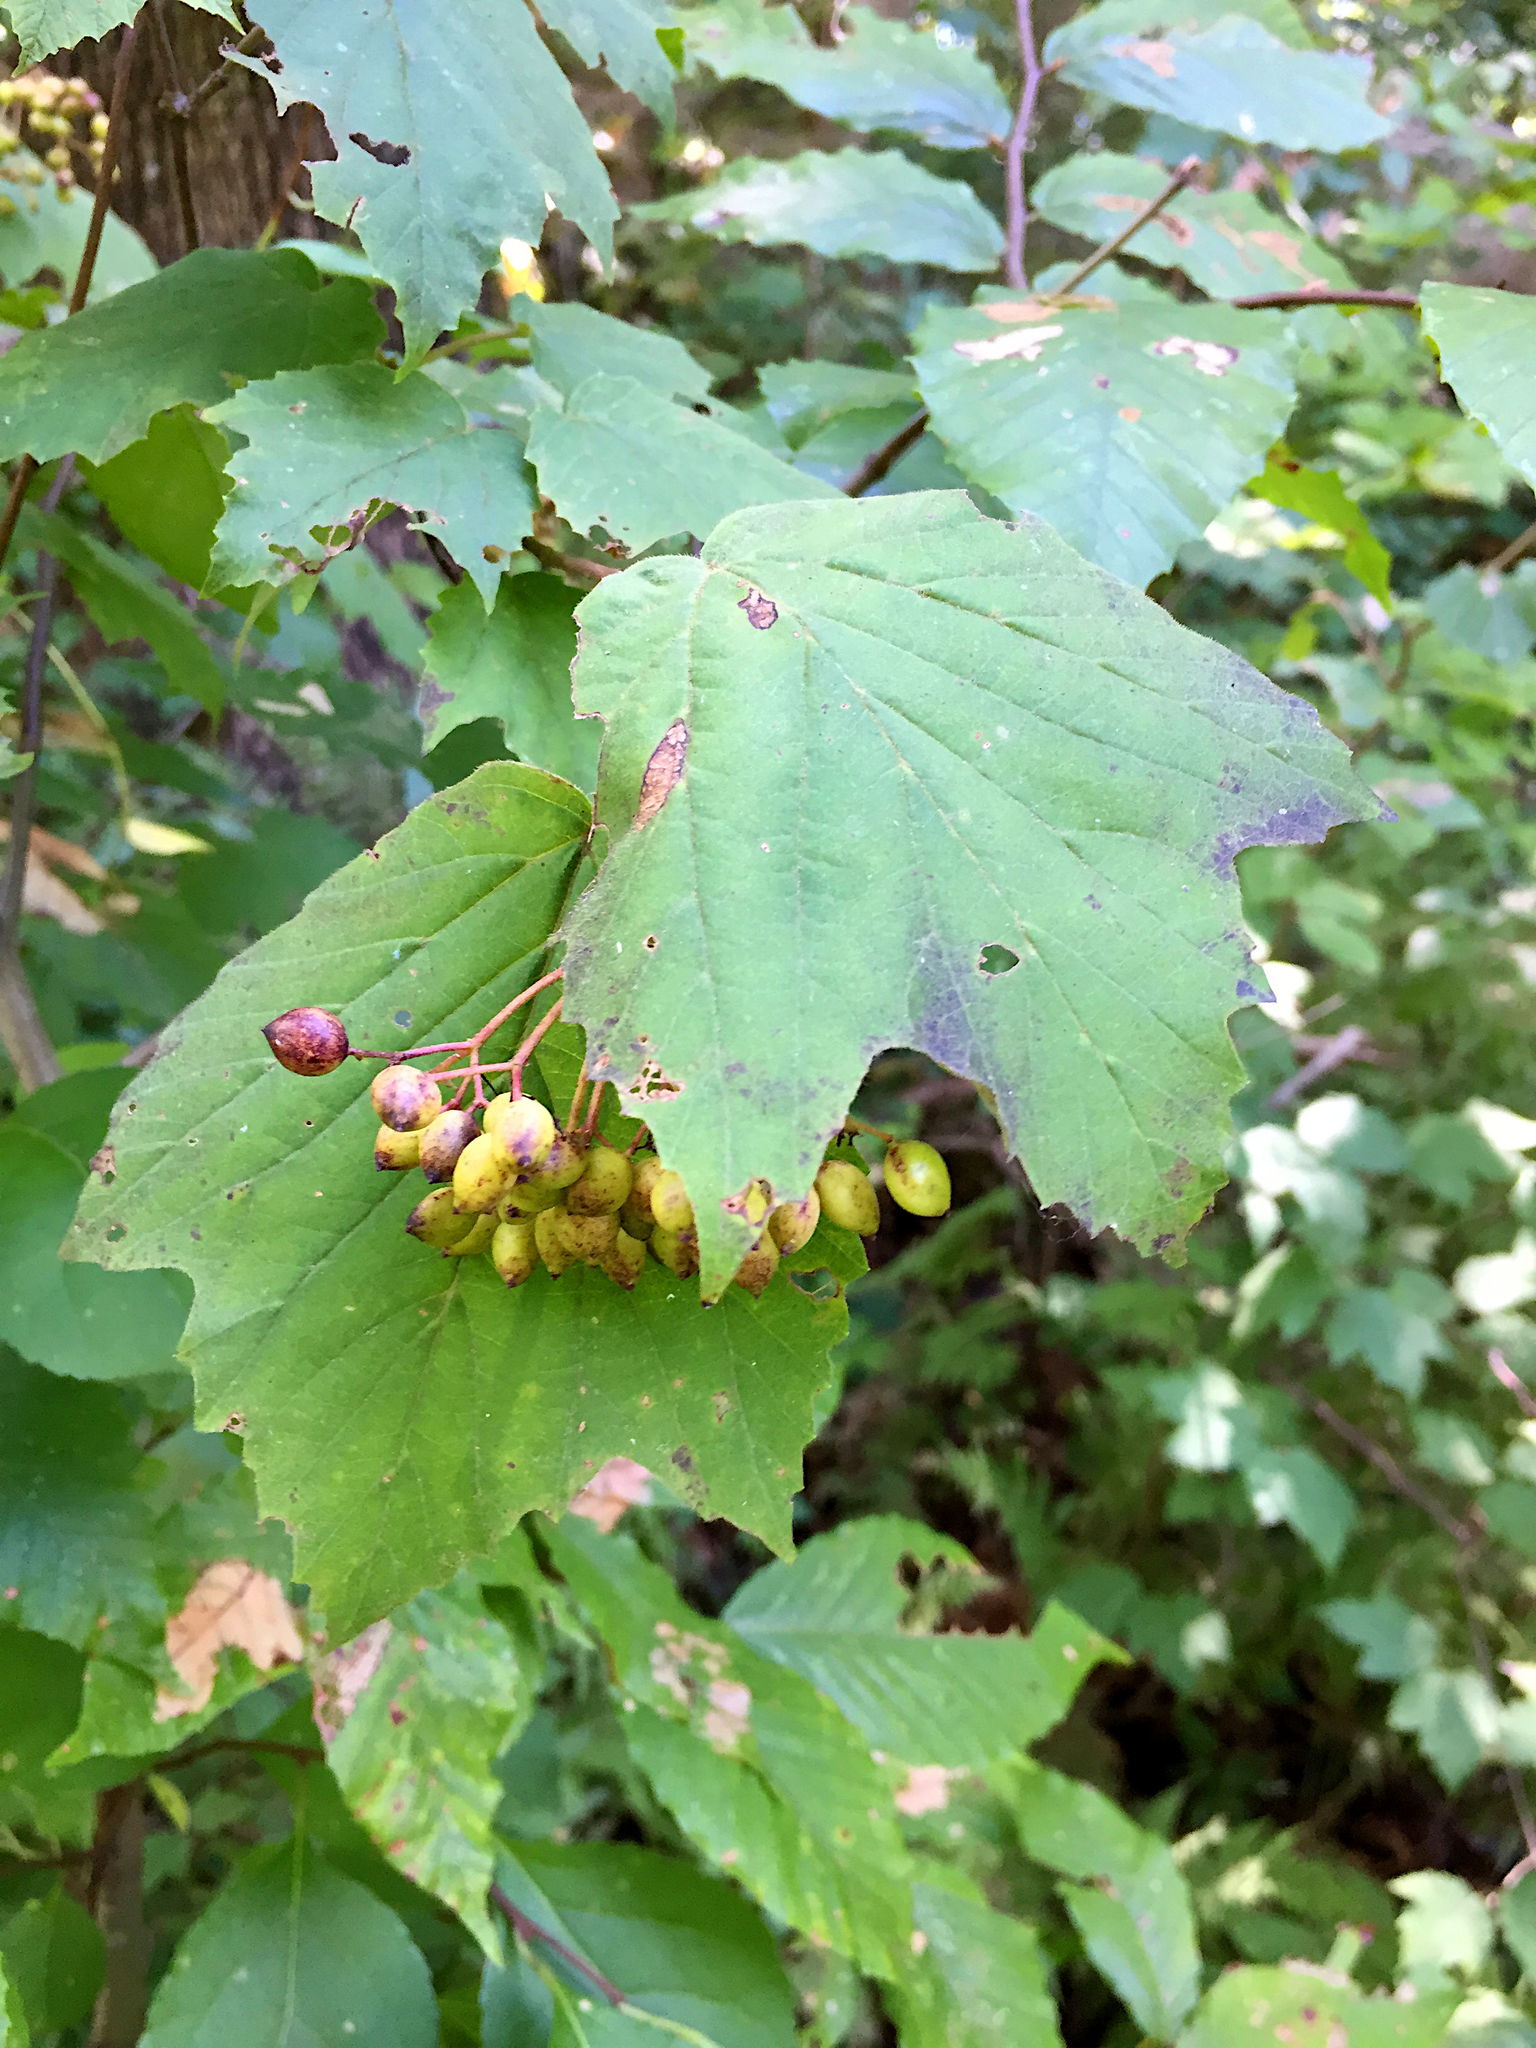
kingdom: Plantae
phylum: Tracheophyta
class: Magnoliopsida
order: Dipsacales
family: Viburnaceae
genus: Viburnum
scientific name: Viburnum acerifolium
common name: Dockmackie
